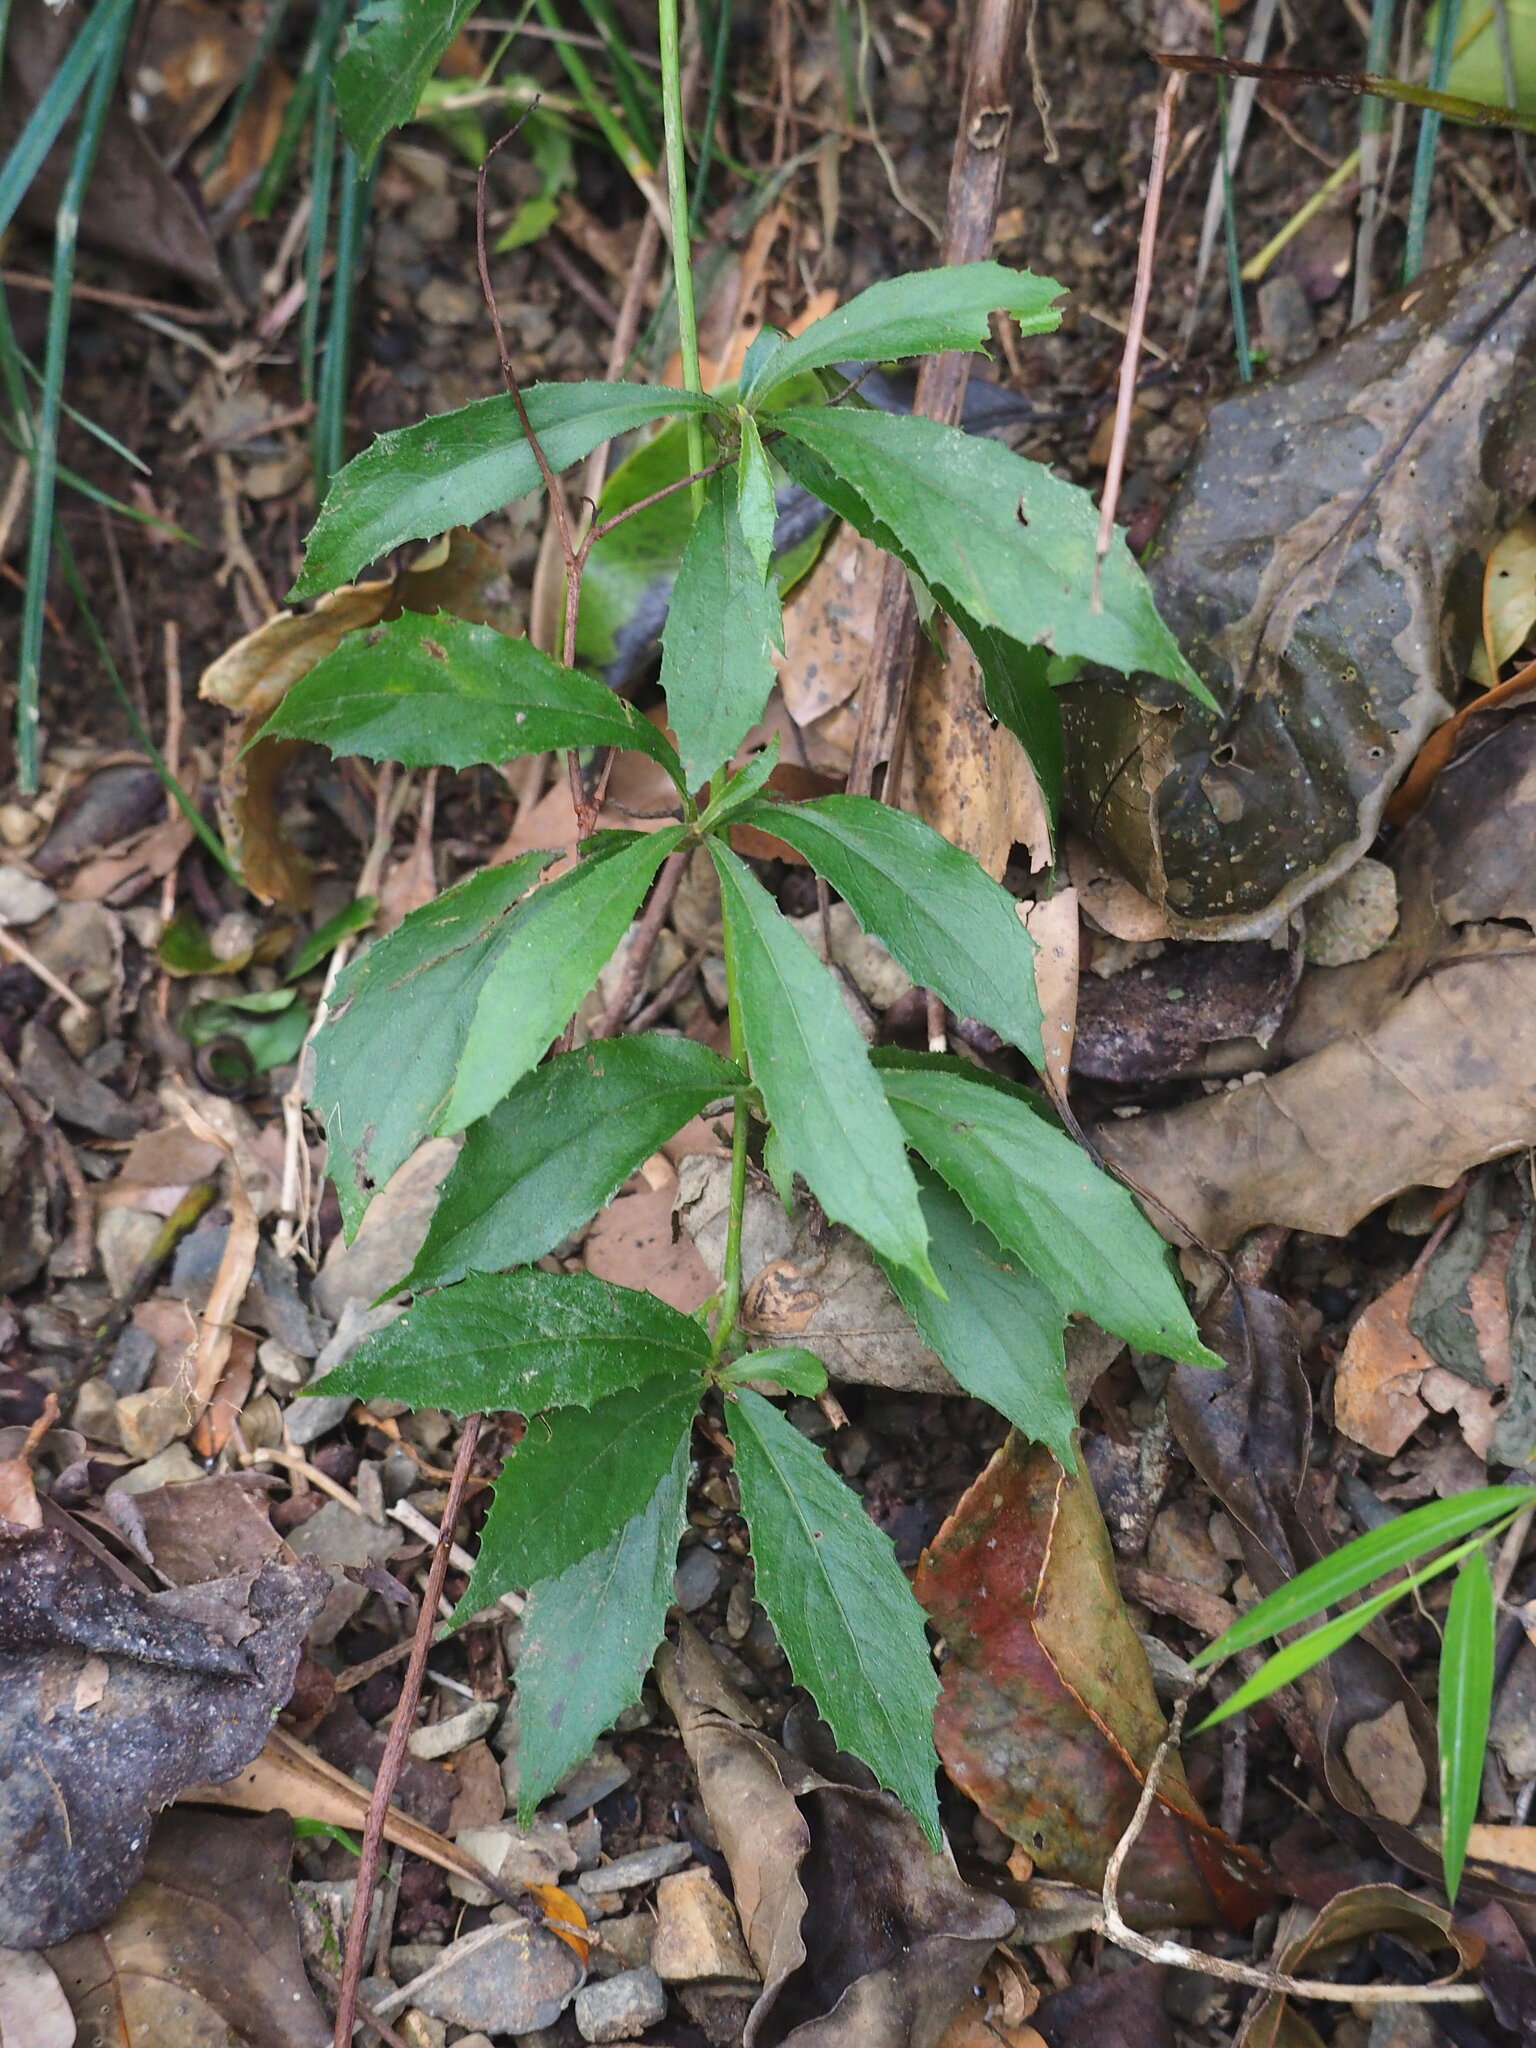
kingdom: Plantae
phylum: Tracheophyta
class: Magnoliopsida
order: Asterales
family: Asteraceae
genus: Blumea
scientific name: Blumea megacephala
